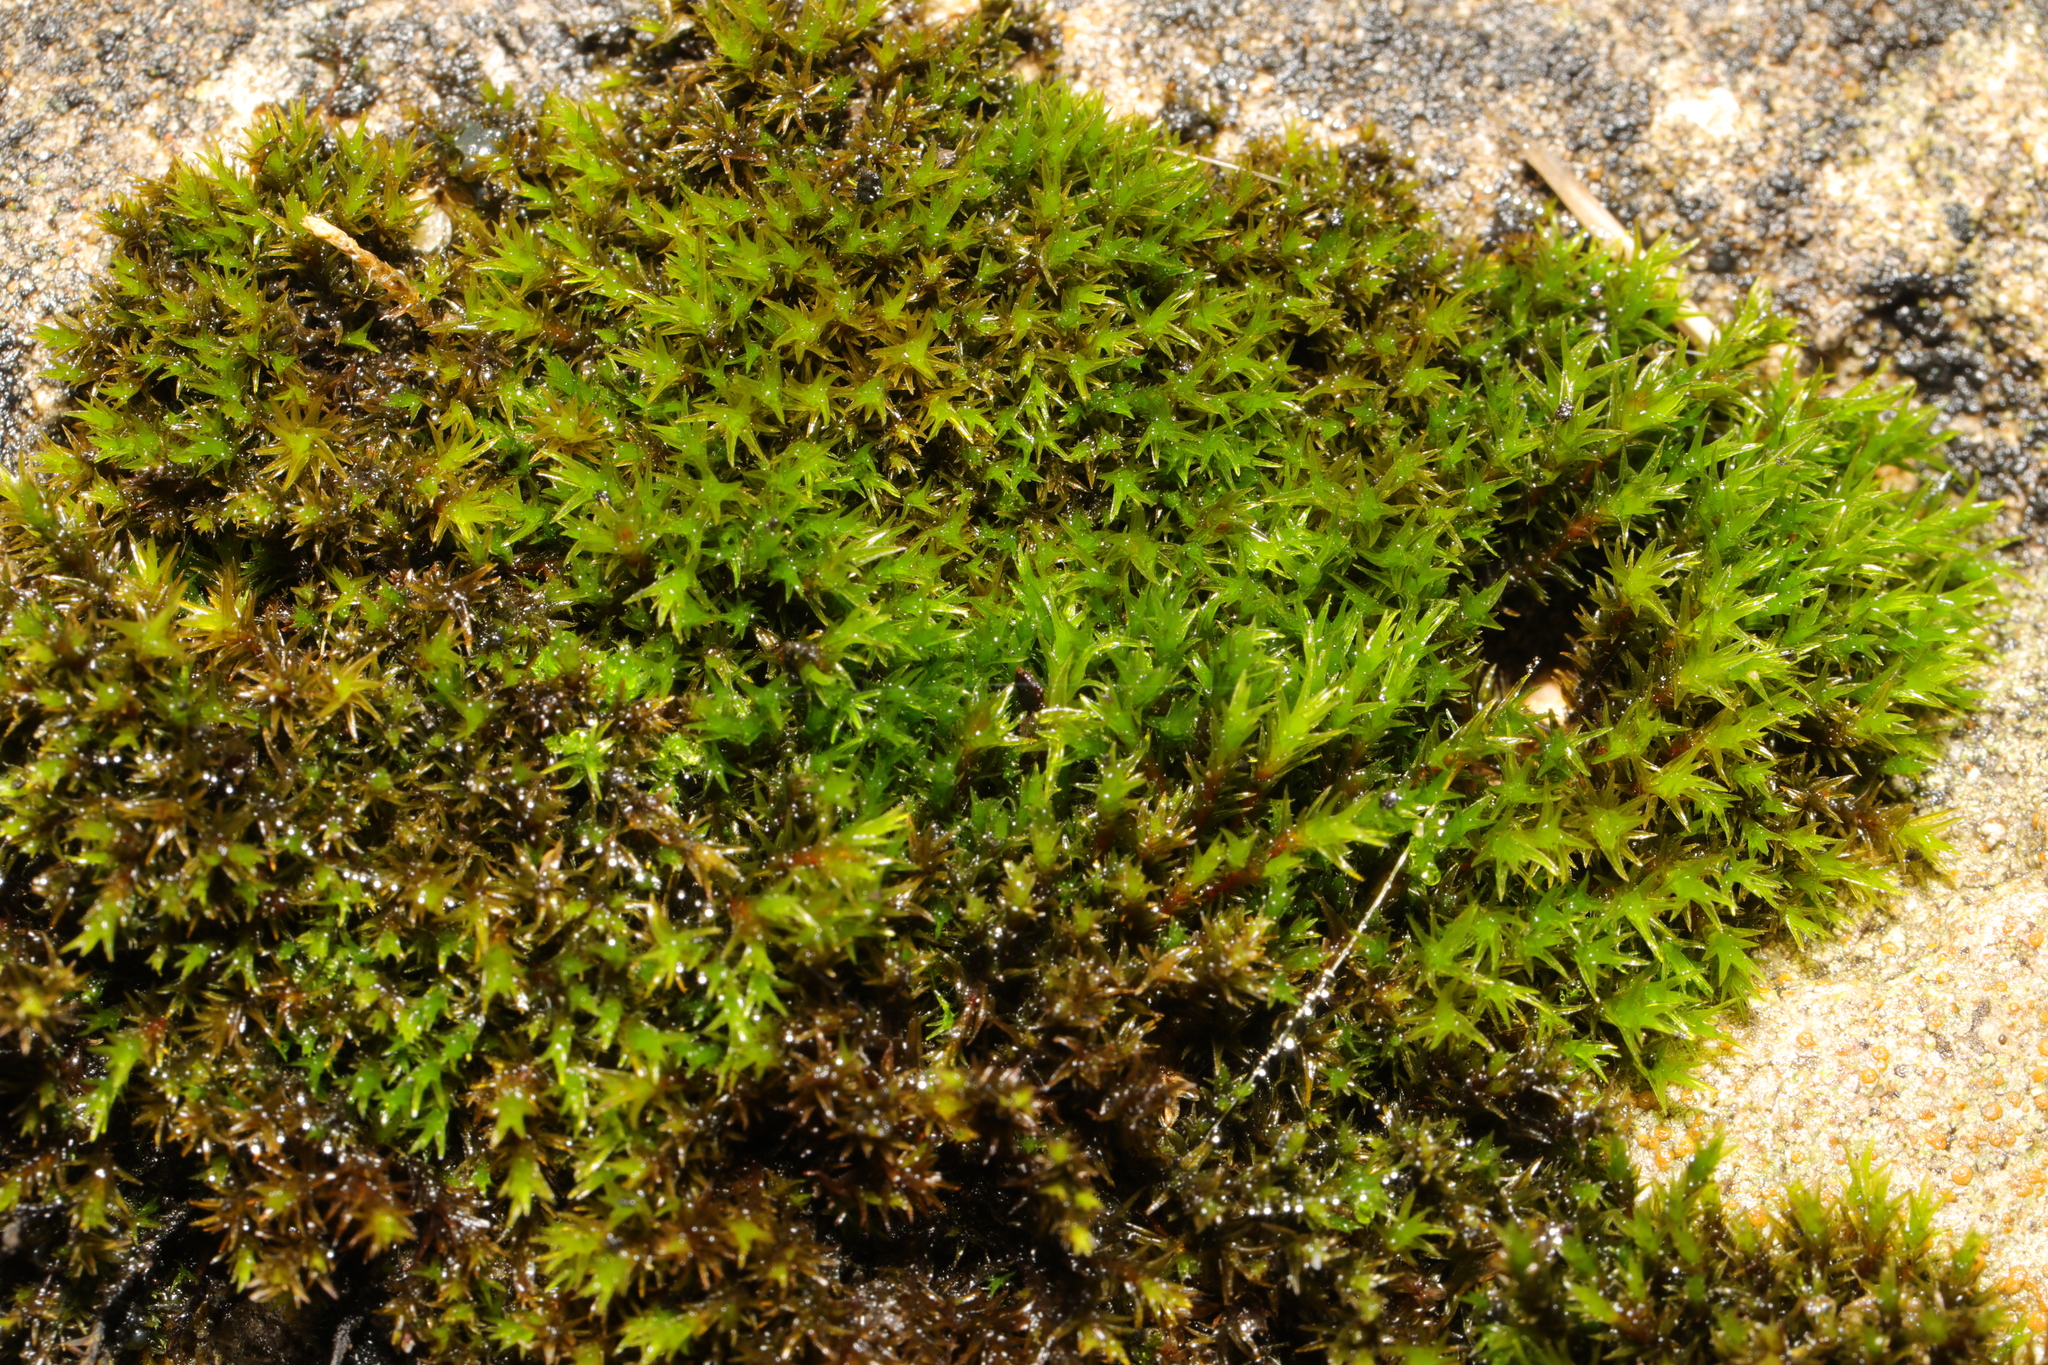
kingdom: Plantae
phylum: Bryophyta
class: Bryopsida
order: Orthotrichales
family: Orthotrichaceae
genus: Orthotrichum
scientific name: Orthotrichum anomalum
